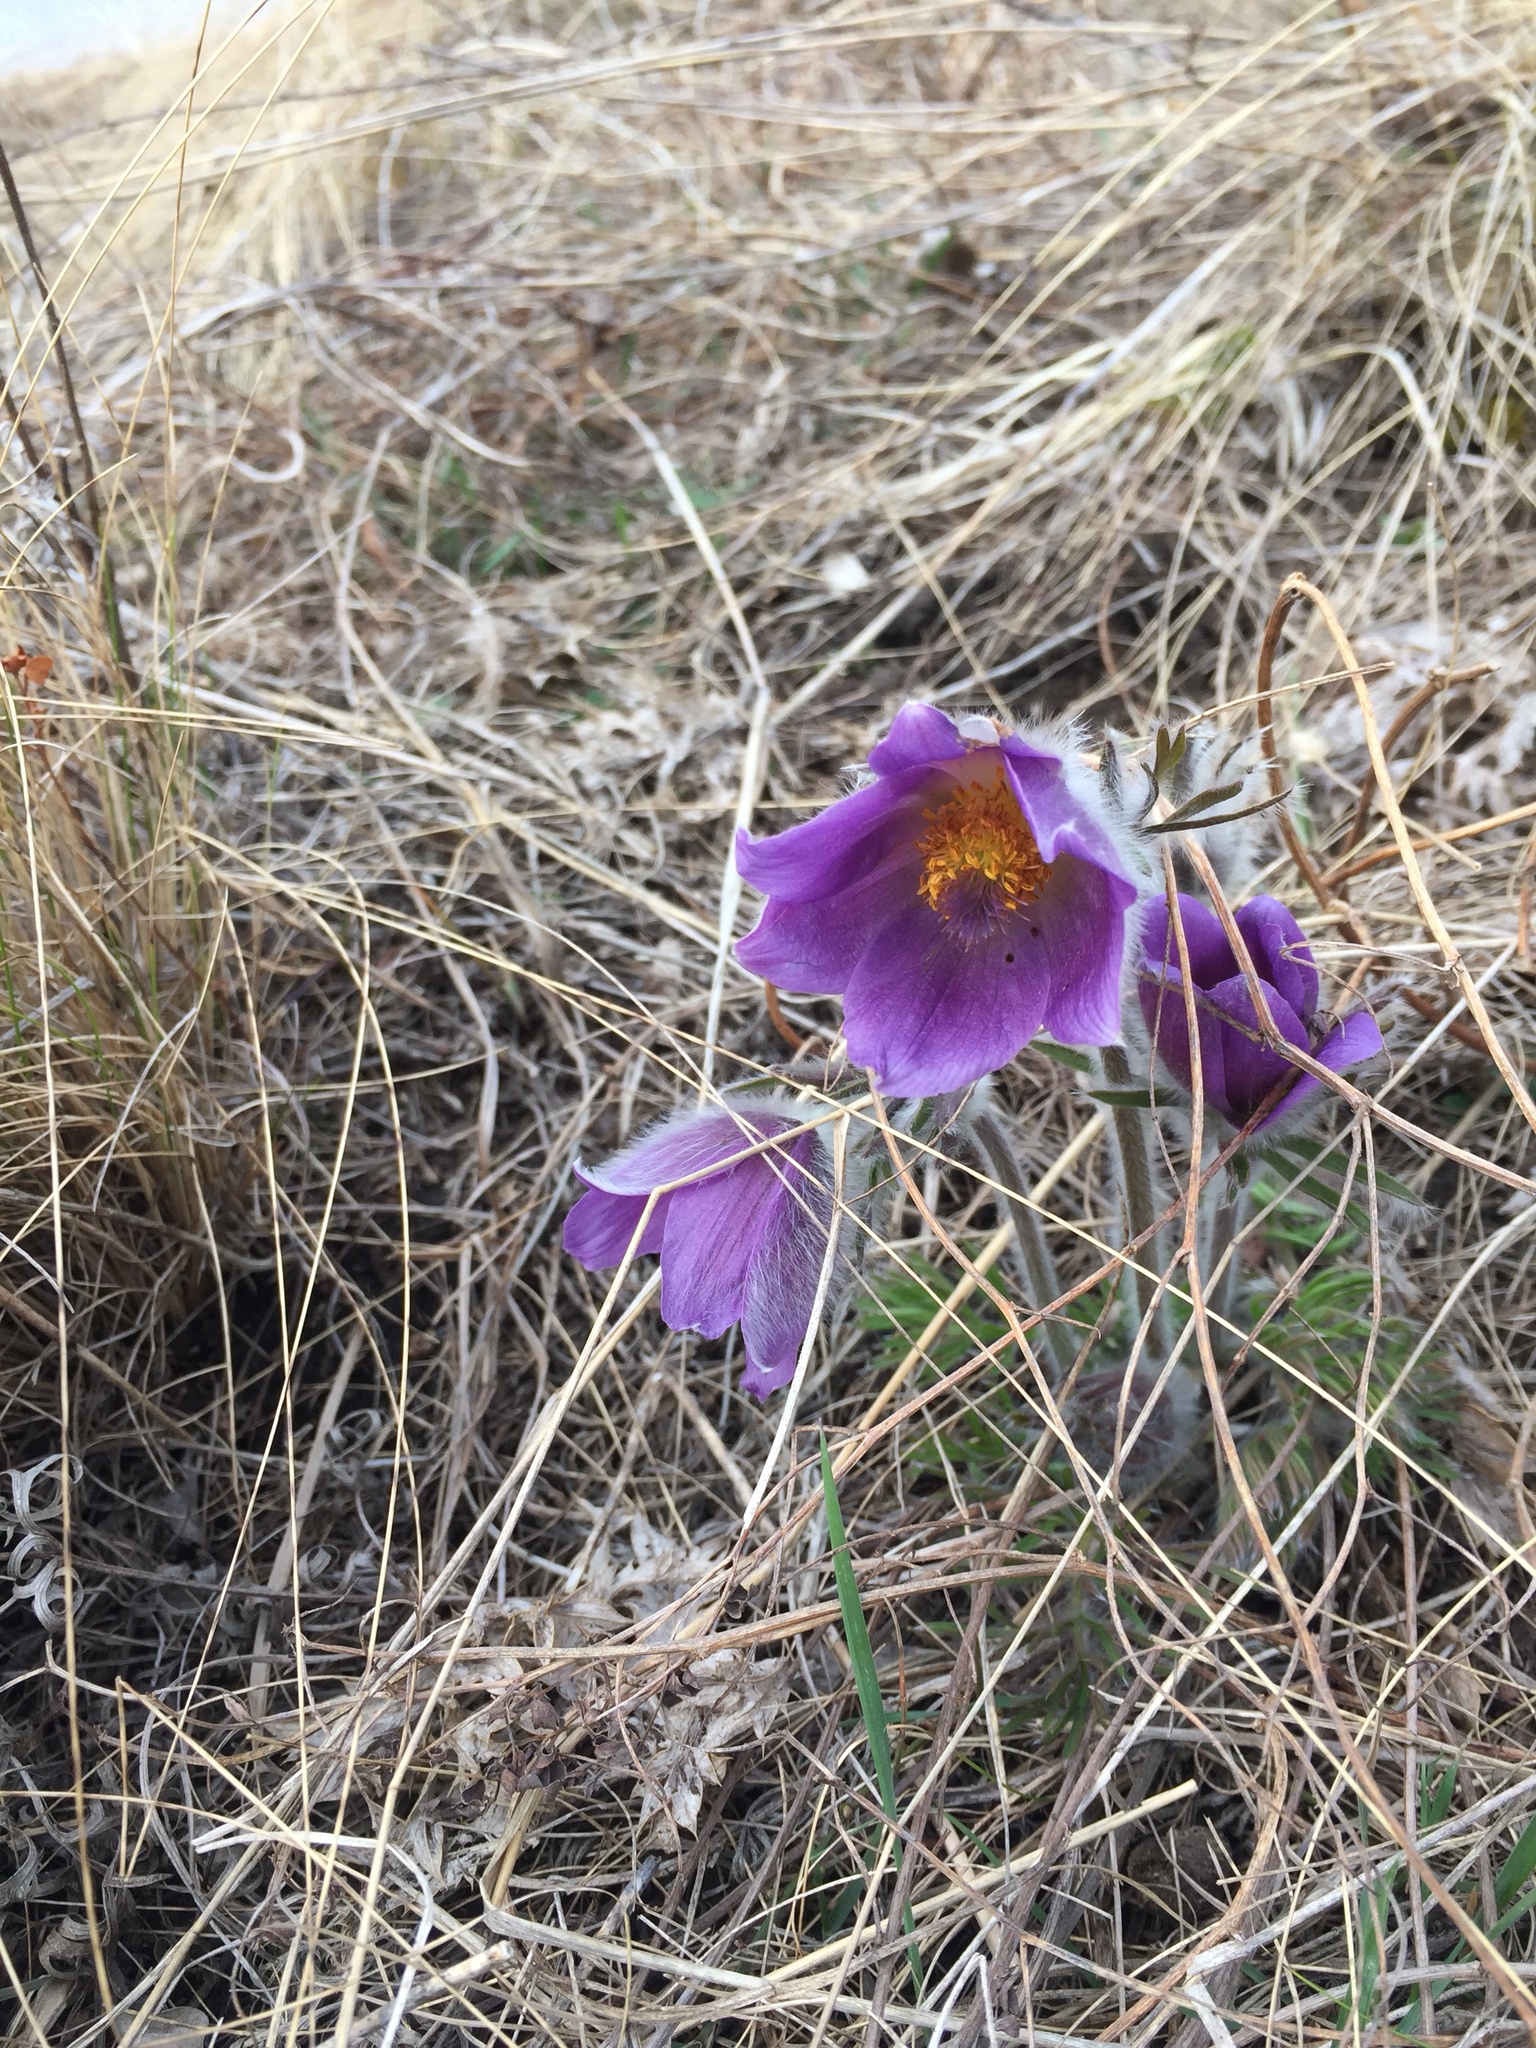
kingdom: Plantae
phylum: Tracheophyta
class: Magnoliopsida
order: Ranunculales
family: Ranunculaceae
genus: Pulsatilla
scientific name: Pulsatilla montana
